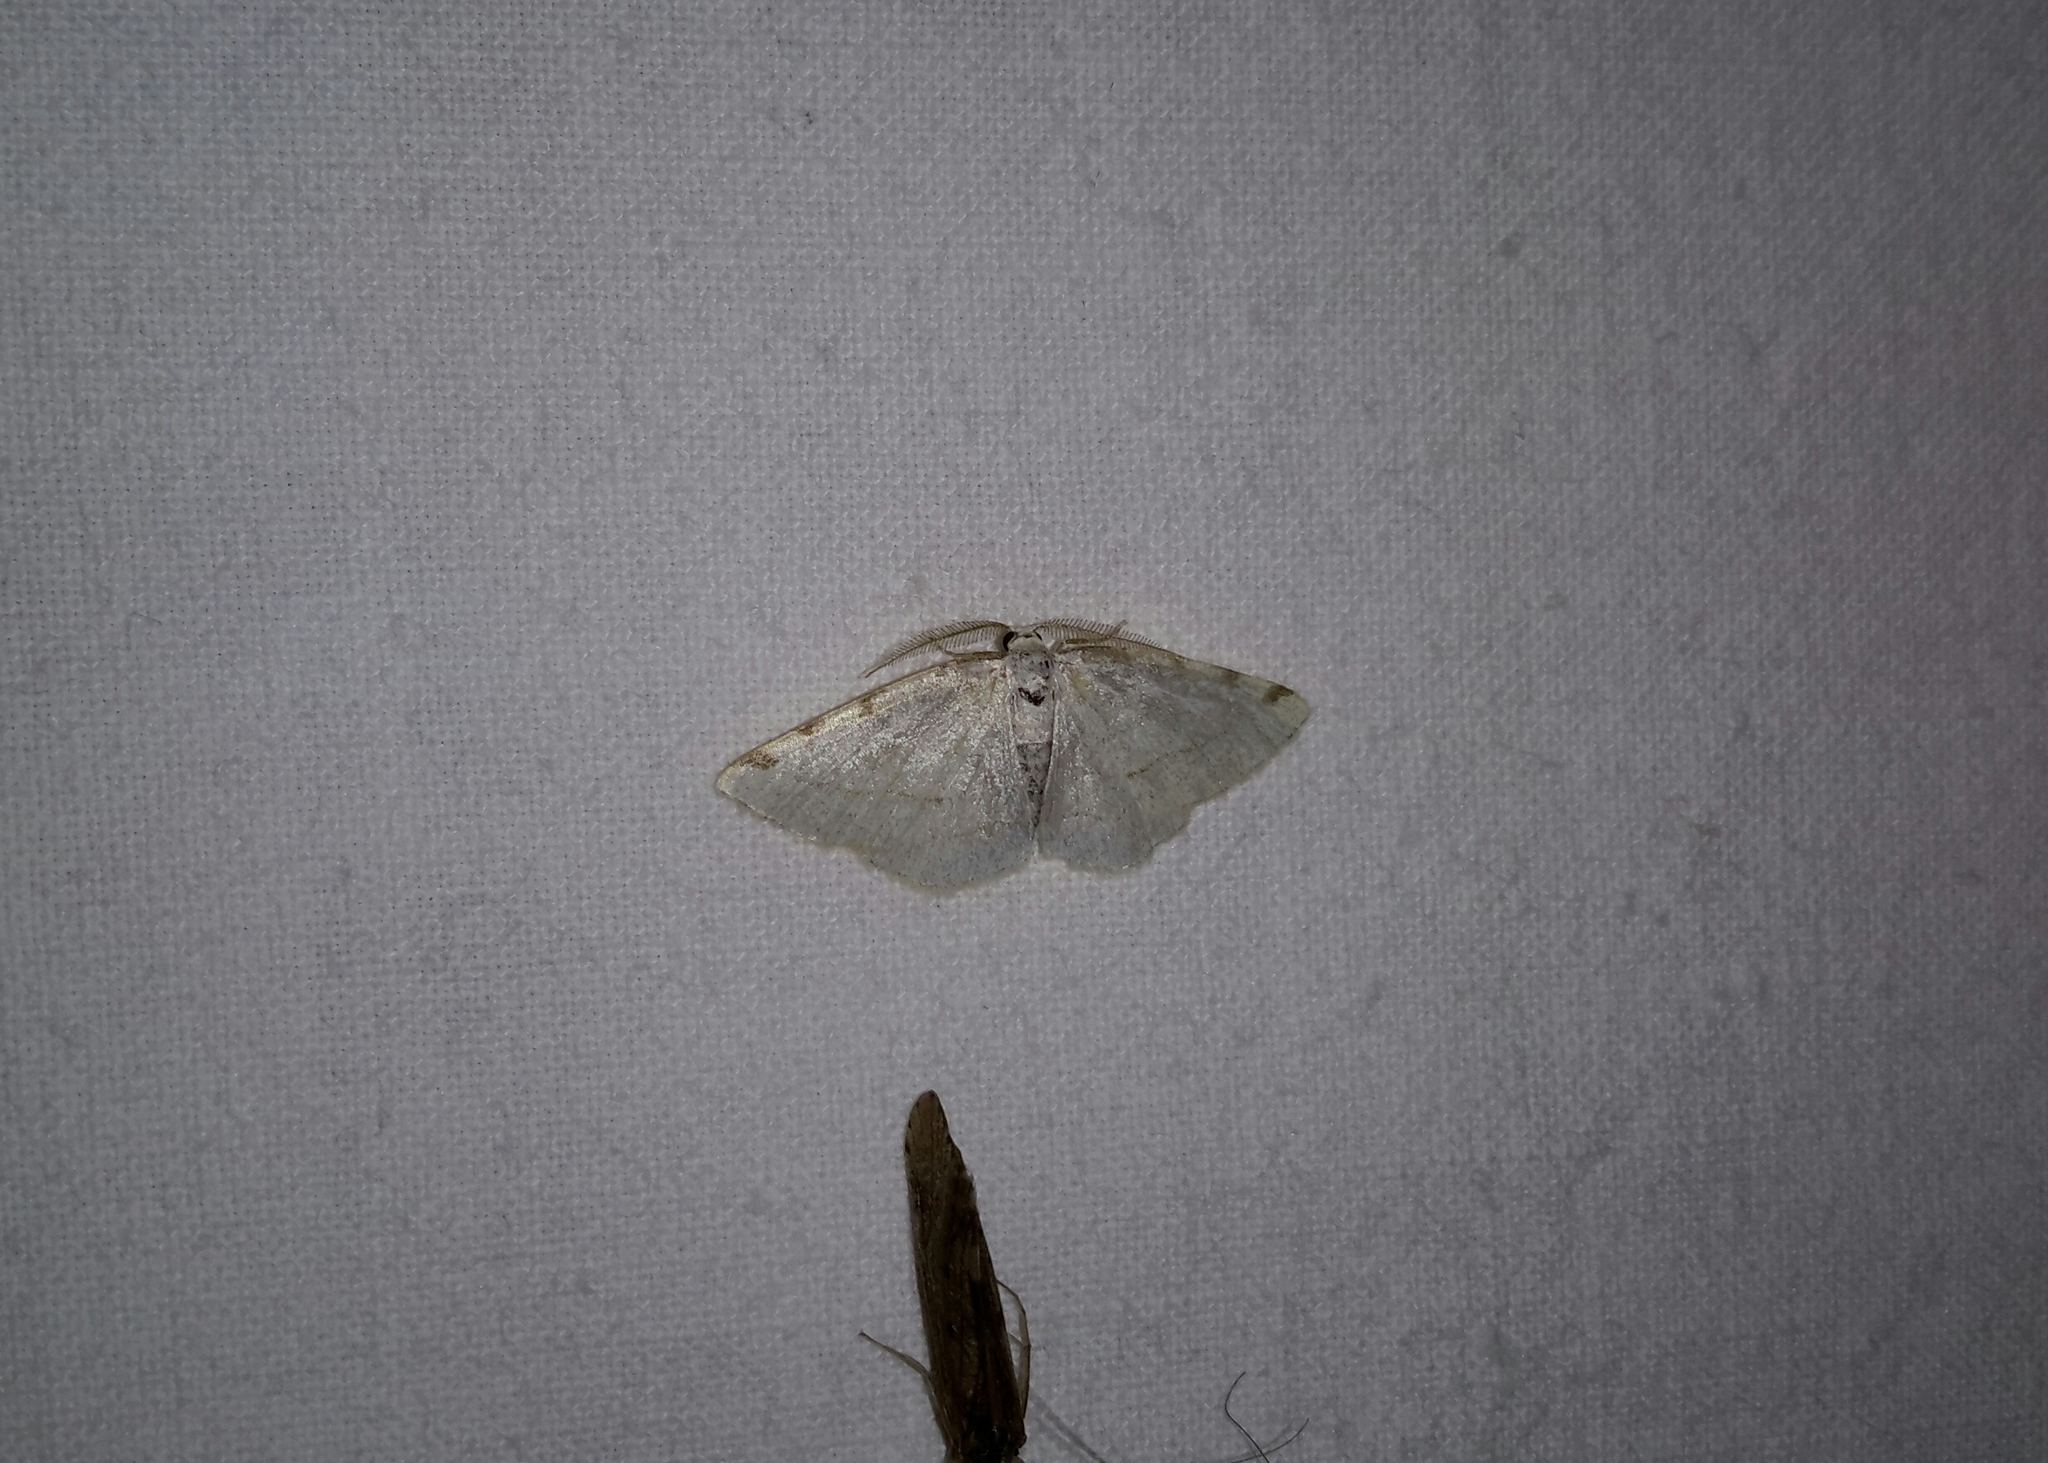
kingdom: Animalia
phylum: Arthropoda
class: Insecta
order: Lepidoptera
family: Geometridae
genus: Stegania
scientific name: Stegania trimaculata
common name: Dorset cream wave
